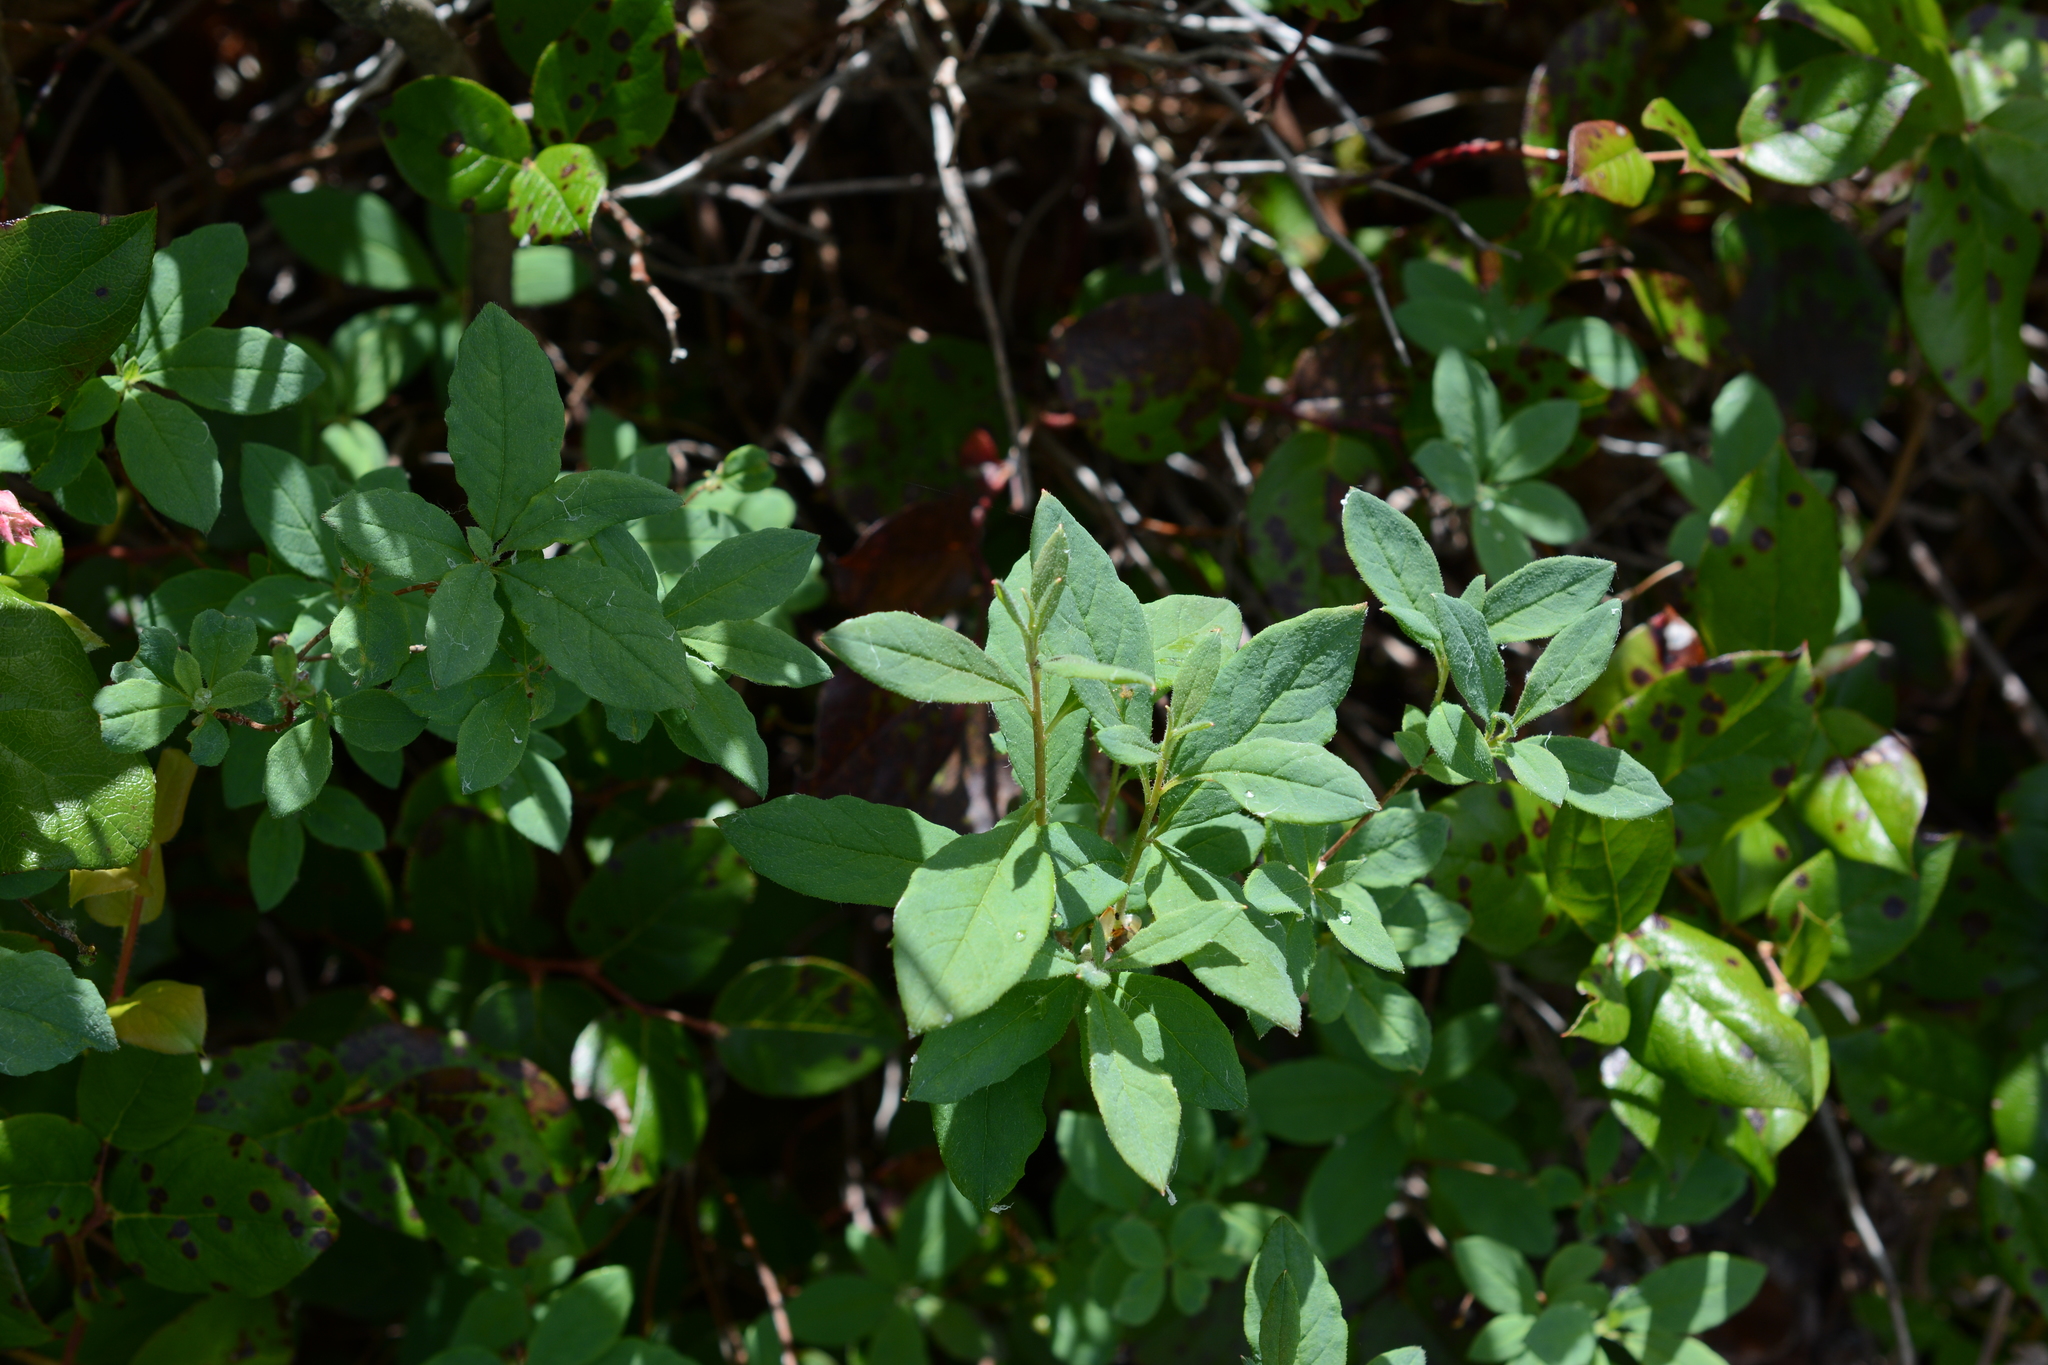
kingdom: Plantae
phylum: Tracheophyta
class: Magnoliopsida
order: Ericales
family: Ericaceae
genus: Rhododendron
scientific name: Rhododendron menziesii
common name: Pacific menziesia
